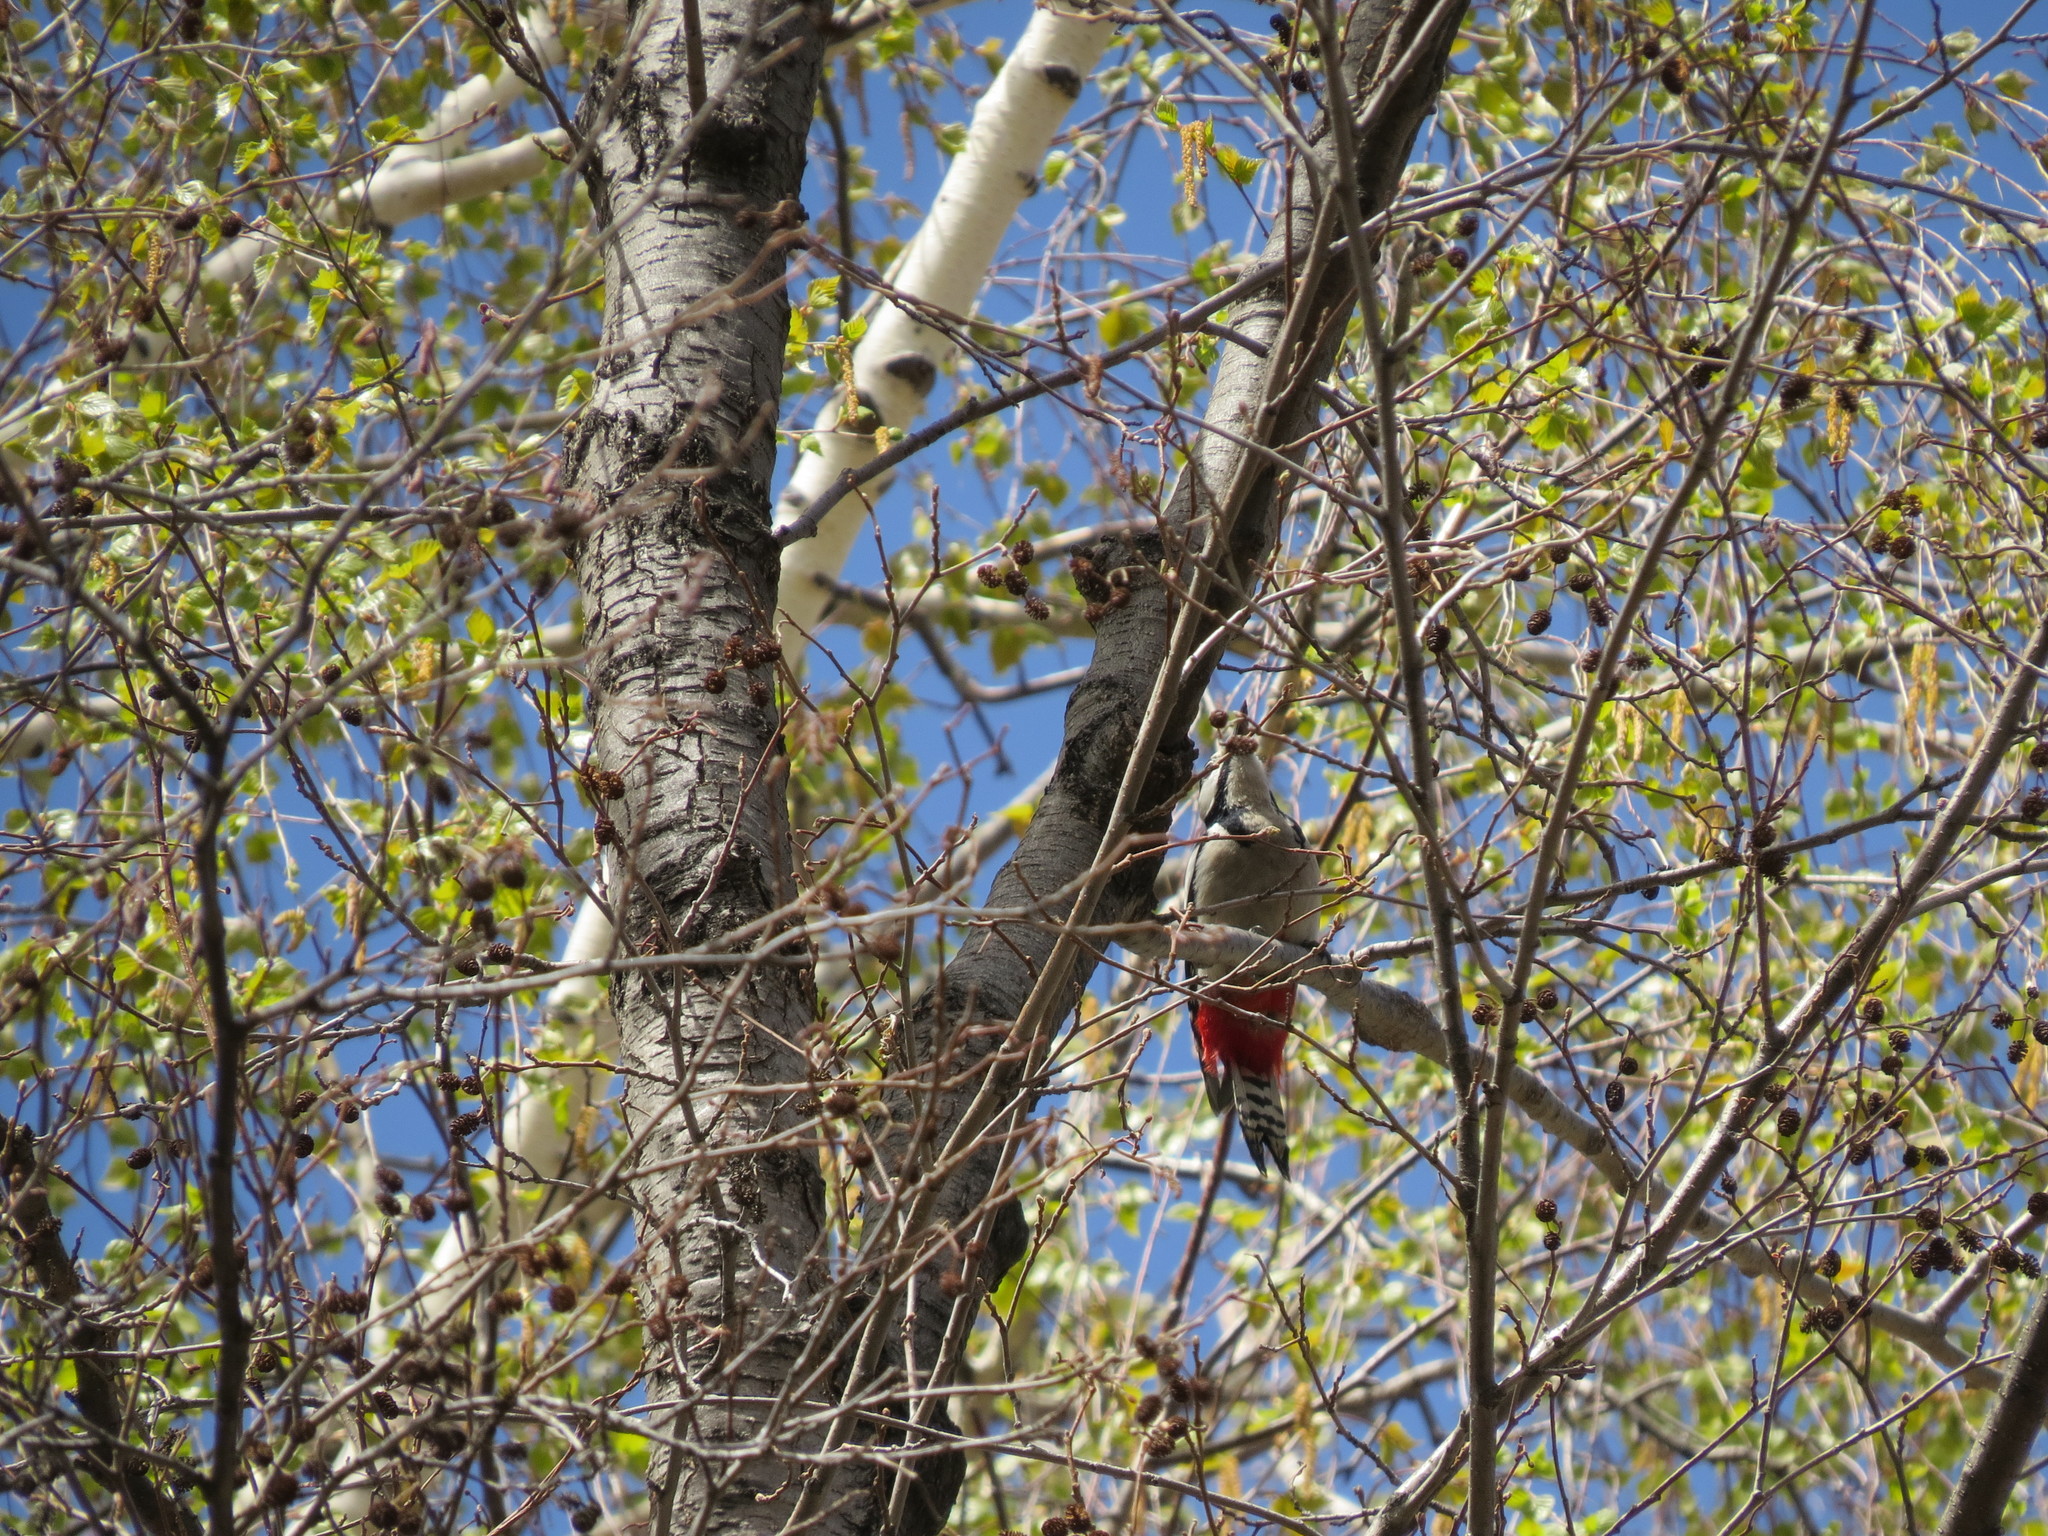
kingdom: Animalia
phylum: Chordata
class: Aves
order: Piciformes
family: Picidae
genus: Dendrocopos
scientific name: Dendrocopos major
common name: Great spotted woodpecker
